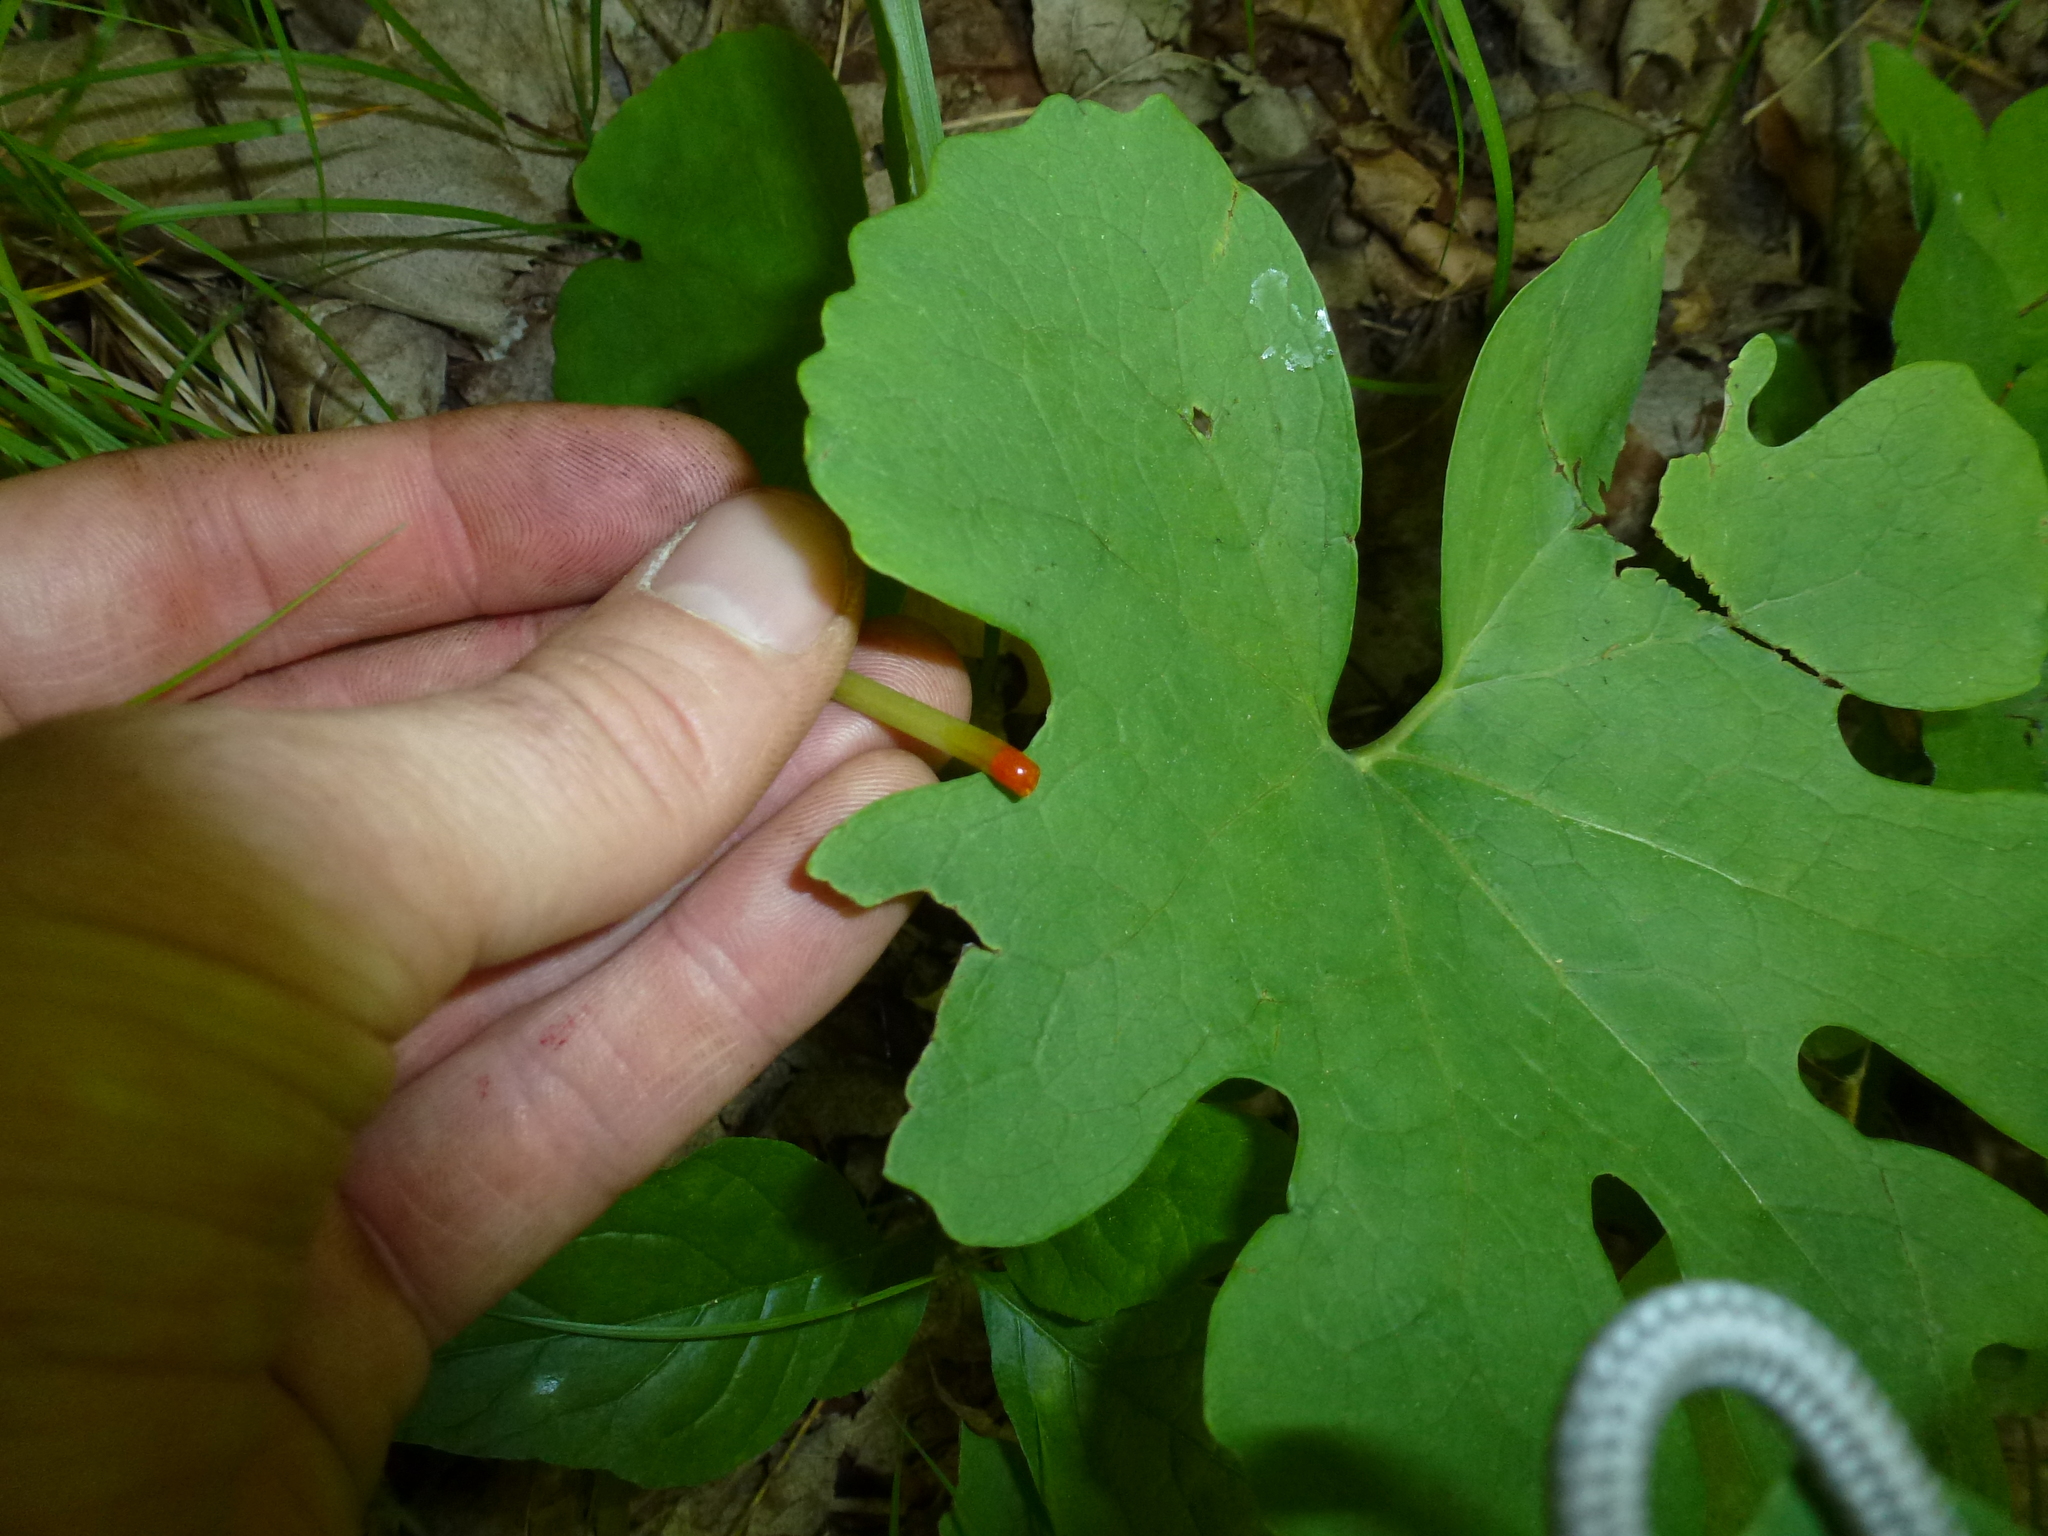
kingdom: Plantae
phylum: Tracheophyta
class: Magnoliopsida
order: Ranunculales
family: Papaveraceae
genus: Sanguinaria
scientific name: Sanguinaria canadensis
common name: Bloodroot
